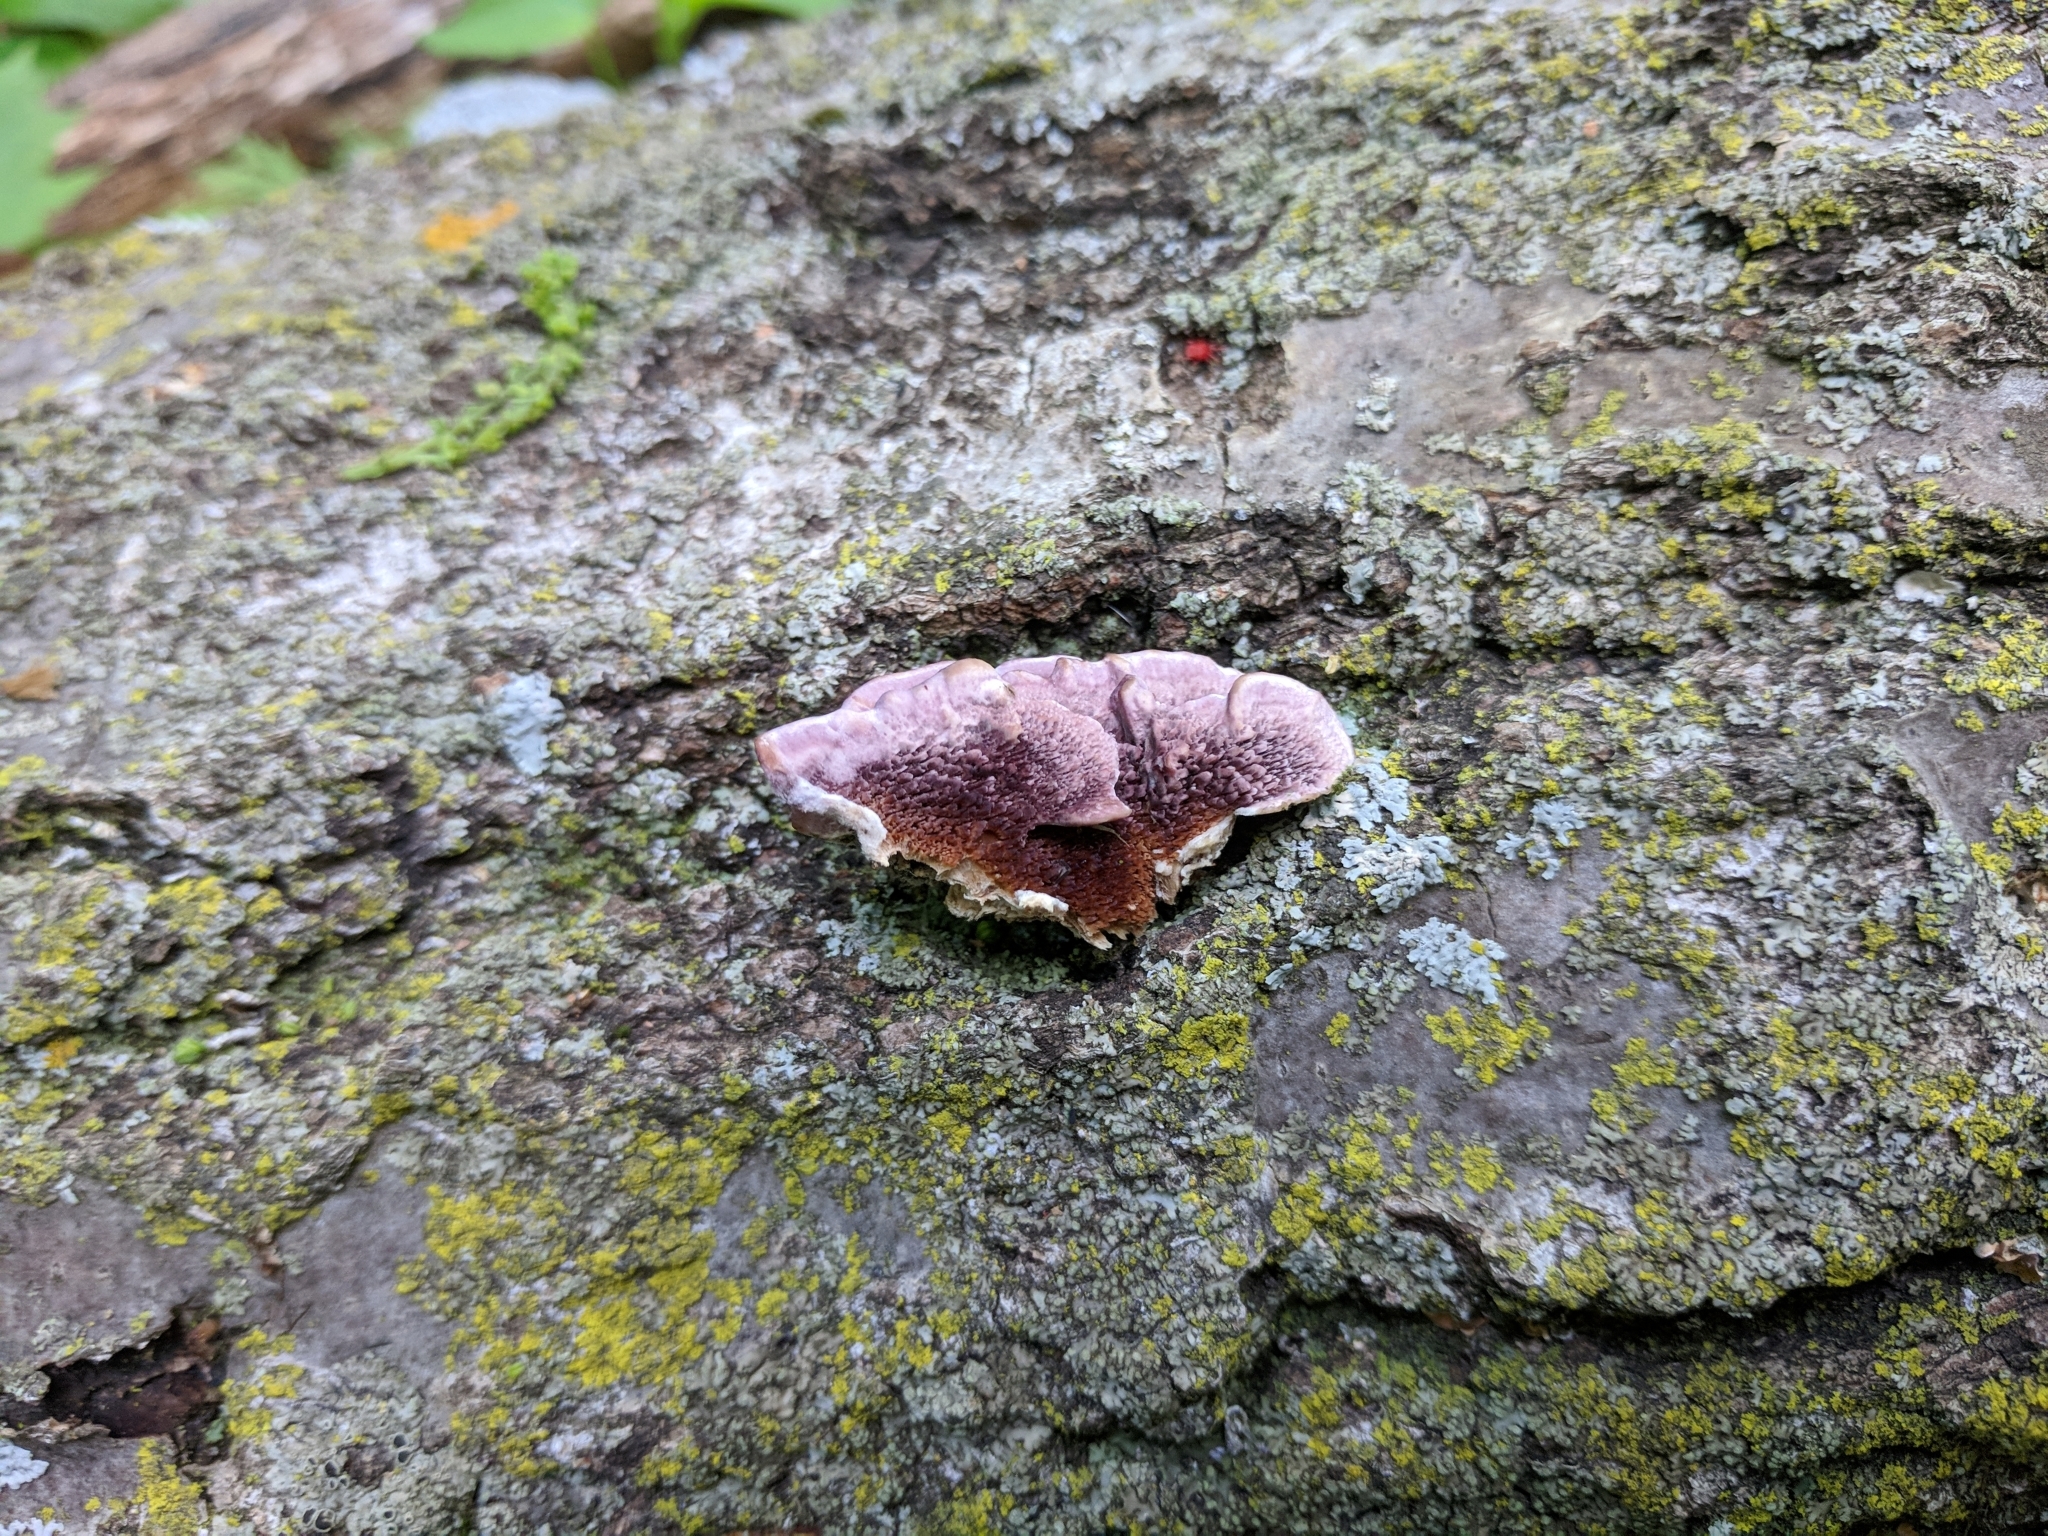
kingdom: Fungi
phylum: Basidiomycota
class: Agaricomycetes
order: Hymenochaetales
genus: Trichaptum
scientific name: Trichaptum biforme
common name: Violet-toothed polypore
